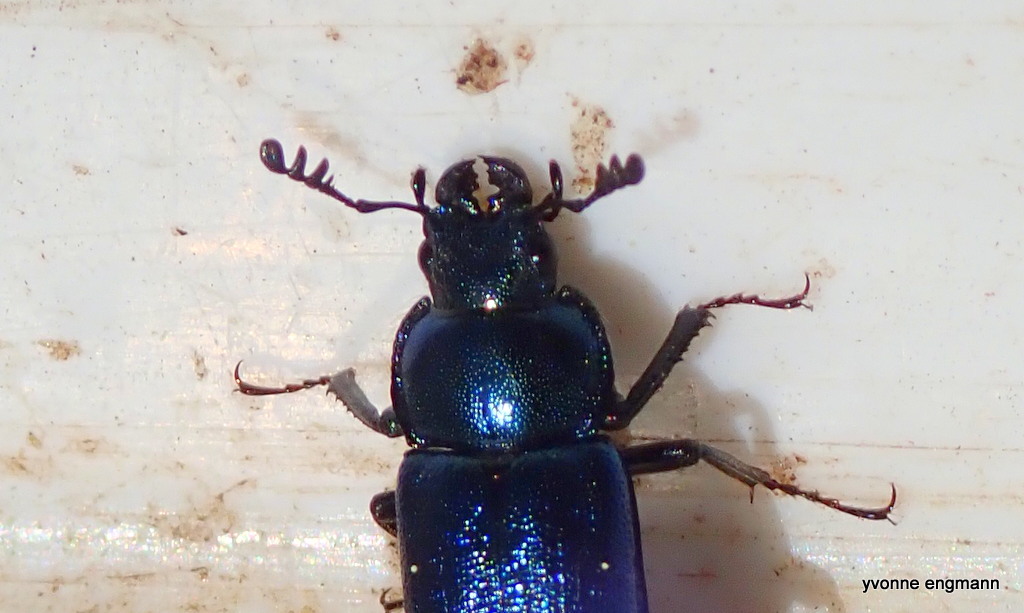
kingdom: Animalia
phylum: Arthropoda
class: Insecta
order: Coleoptera
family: Lucanidae
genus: Platycerus
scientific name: Platycerus caraboides
